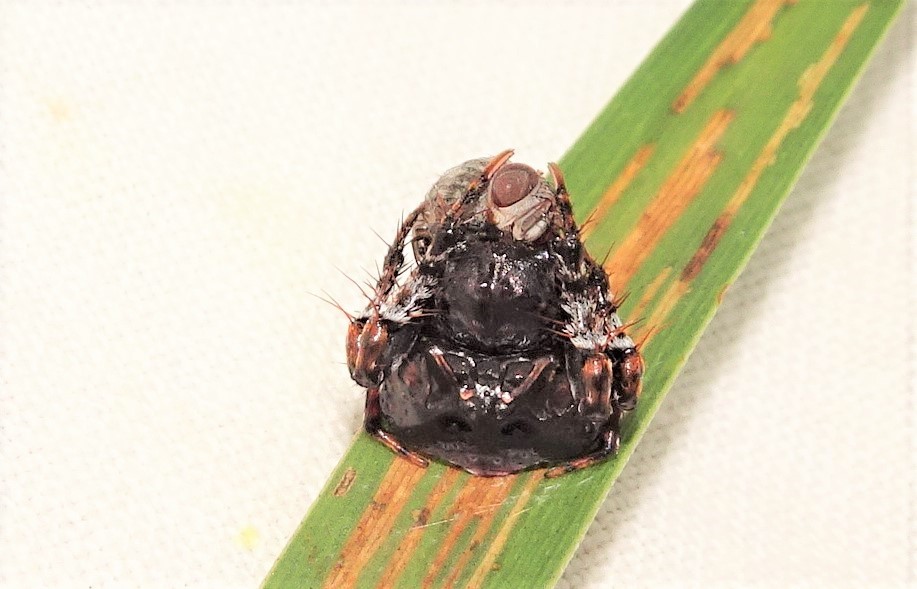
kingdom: Animalia
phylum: Arthropoda
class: Arachnida
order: Araneae
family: Arkyidae
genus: Arkys
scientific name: Arkys curtulus
